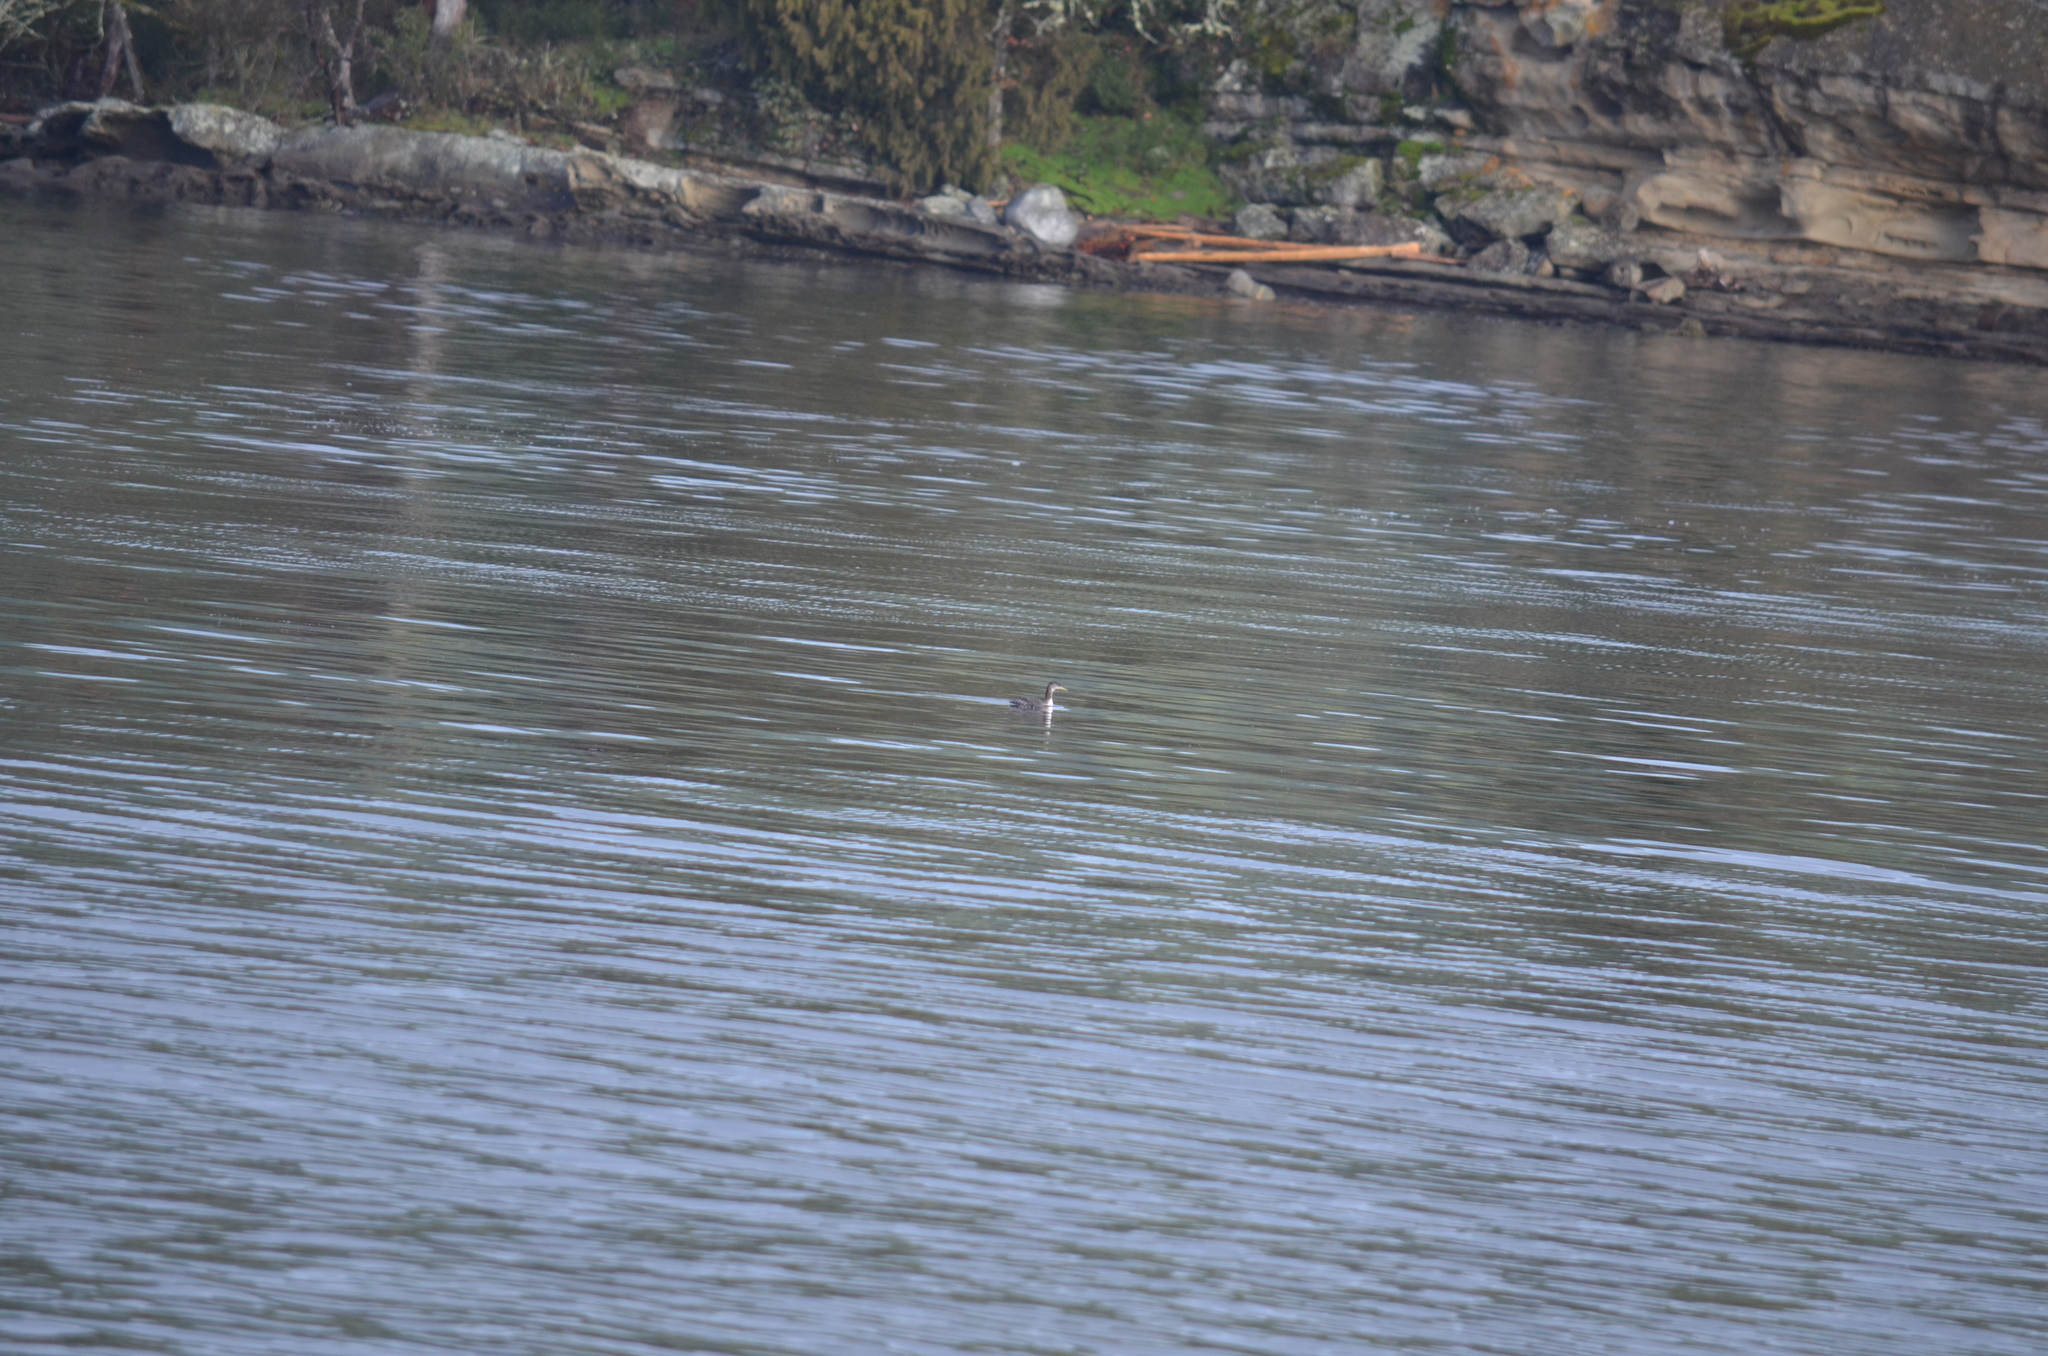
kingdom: Animalia
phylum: Chordata
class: Aves
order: Podicipediformes
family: Podicipedidae
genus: Podiceps
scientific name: Podiceps grisegena
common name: Red-necked grebe
